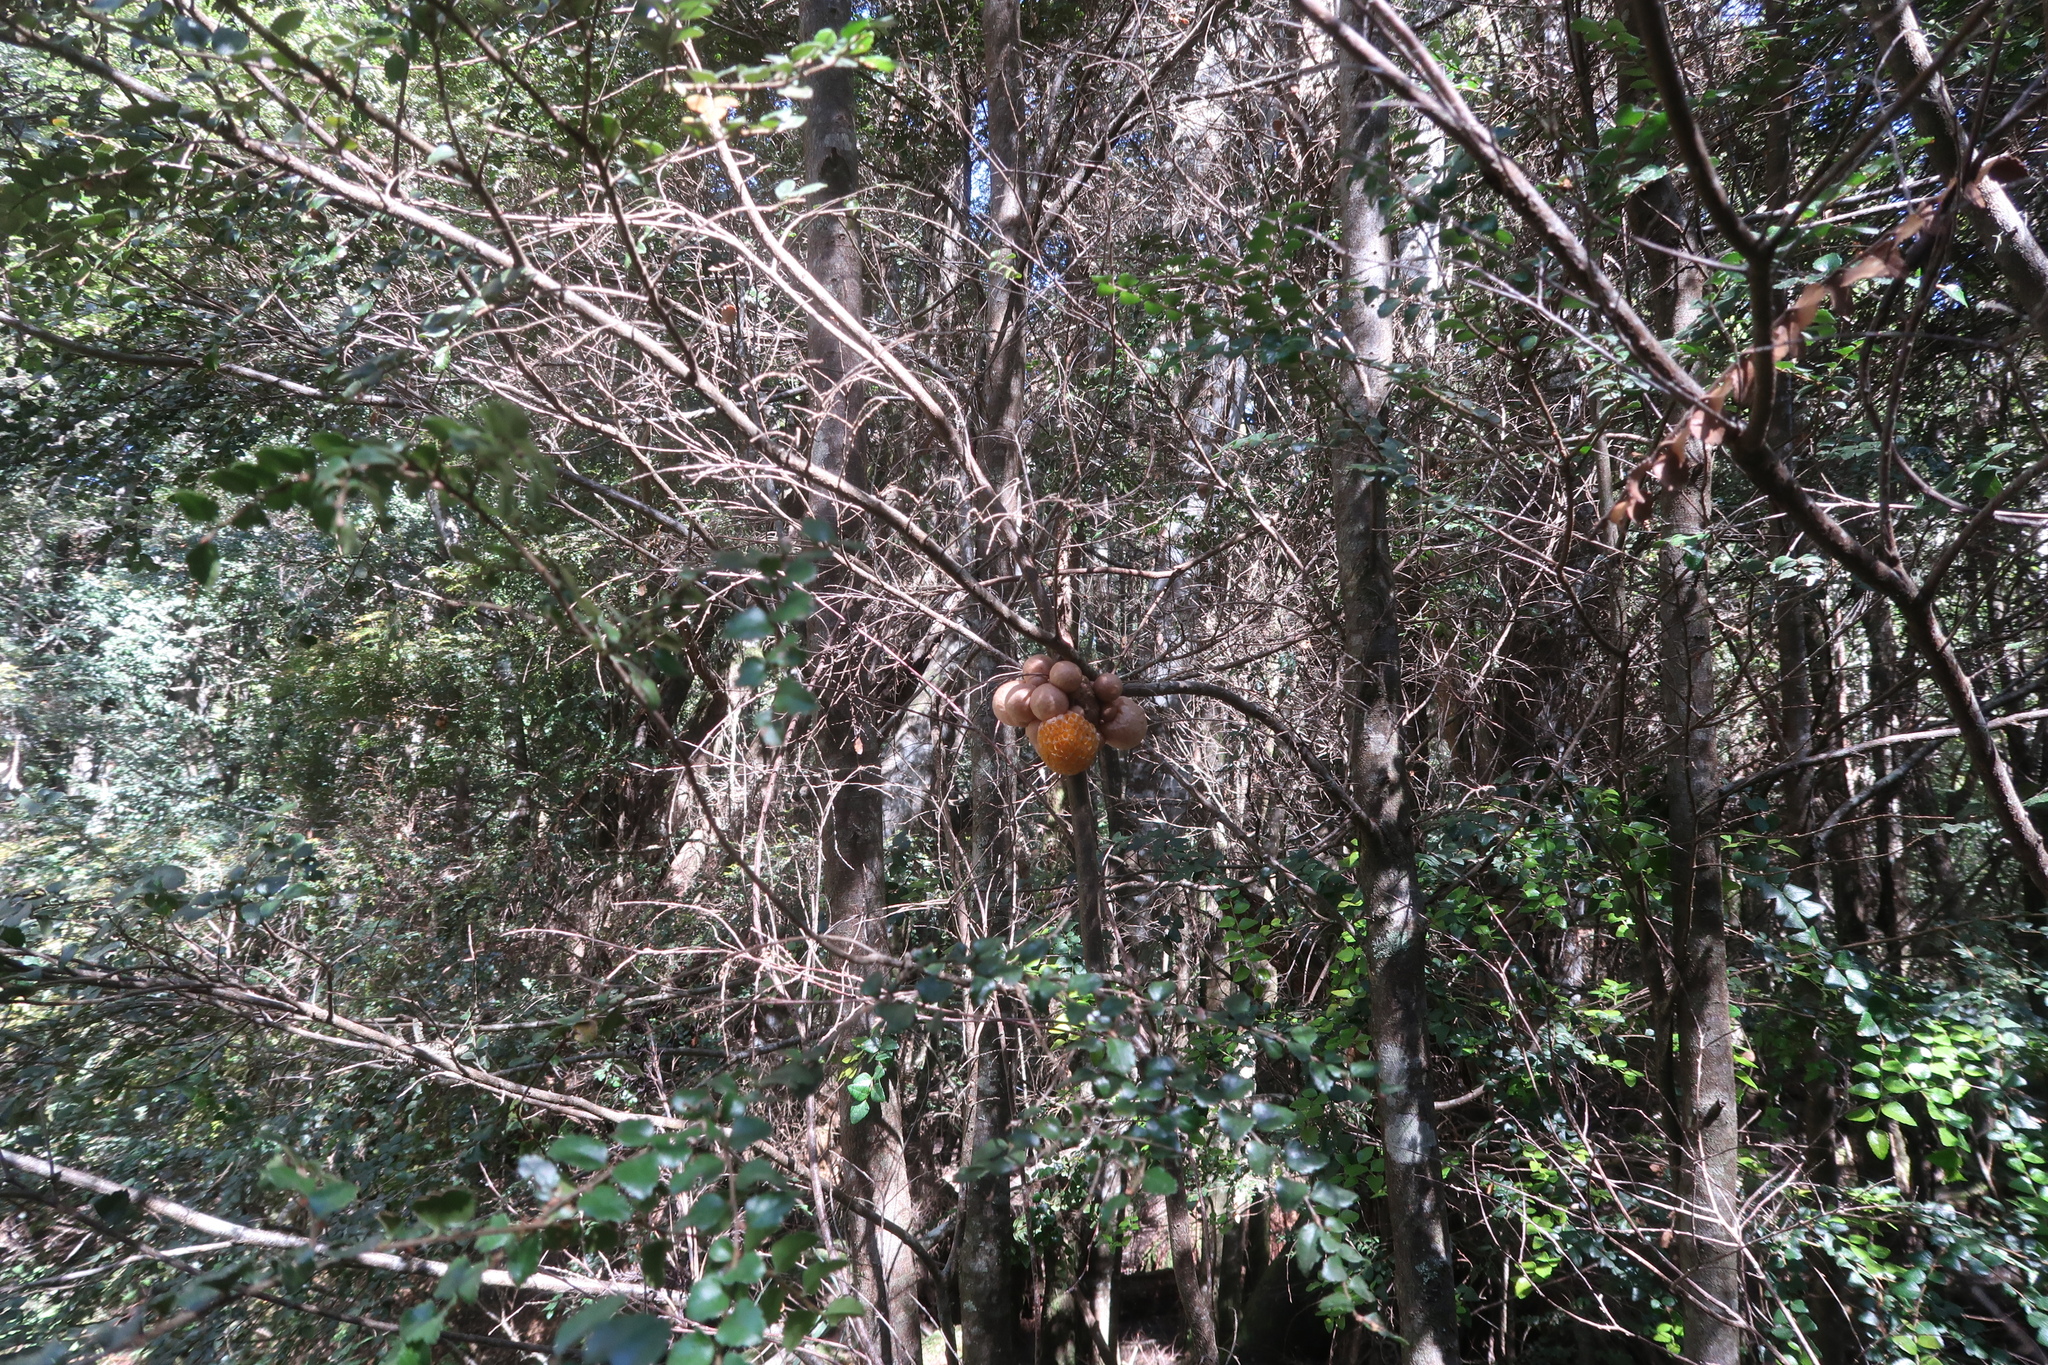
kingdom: Fungi
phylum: Ascomycota
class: Leotiomycetes
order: Cyttariales
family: Cyttariaceae
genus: Cyttaria
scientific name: Cyttaria gunnii
